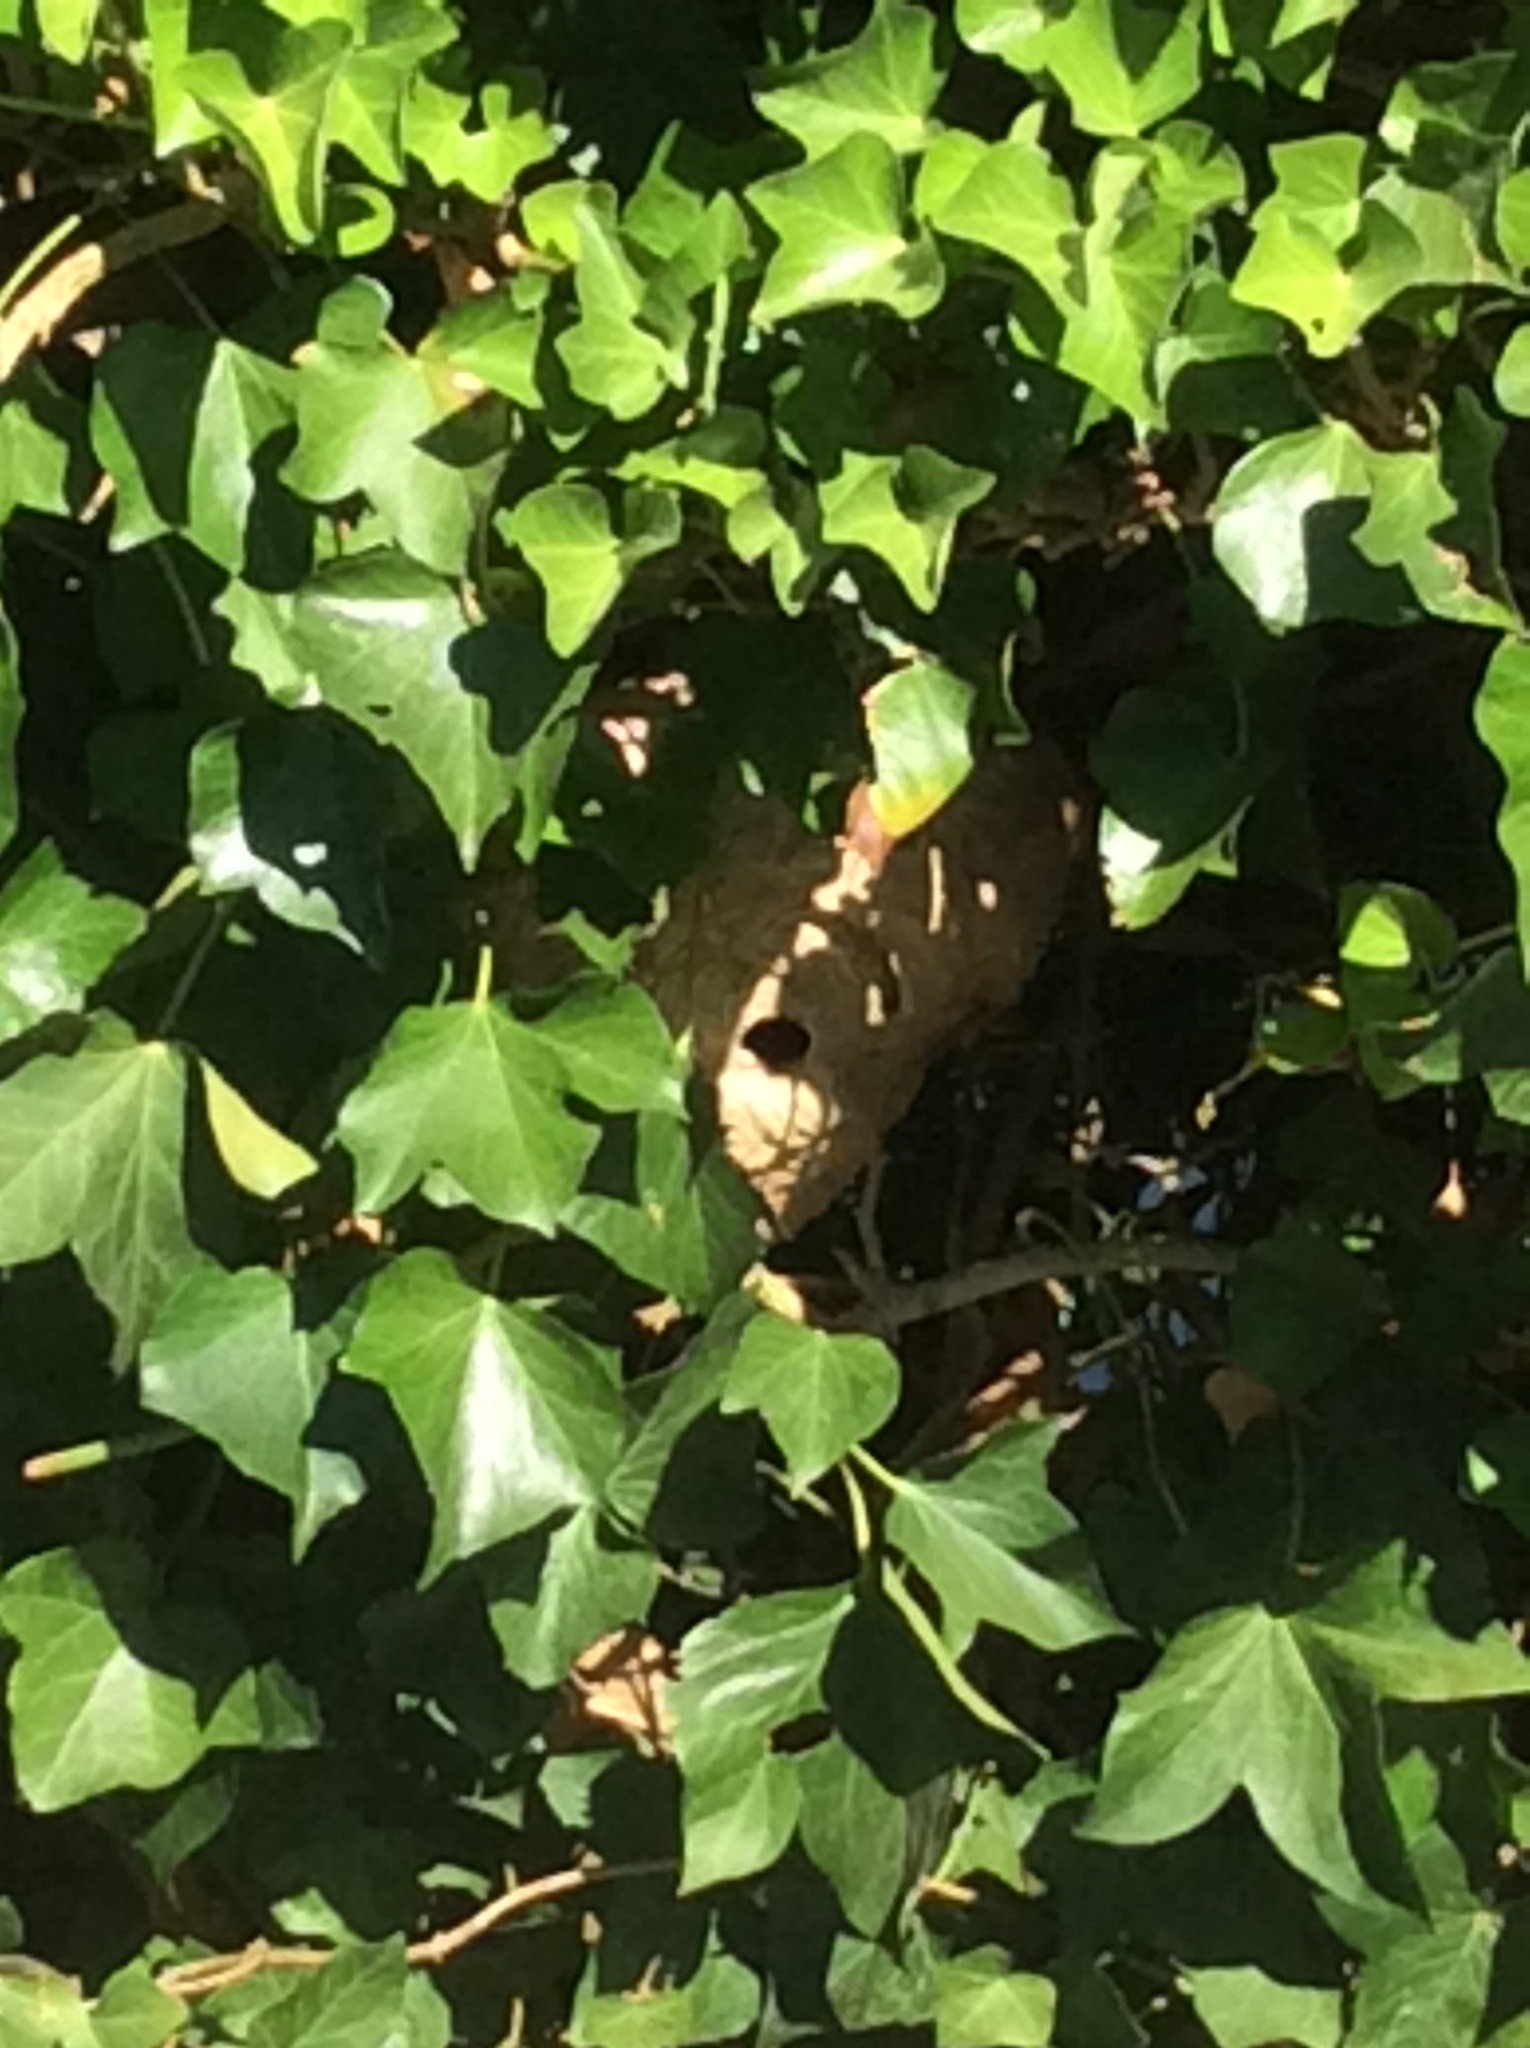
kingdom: Animalia
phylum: Arthropoda
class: Insecta
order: Hymenoptera
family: Vespidae
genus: Vespa
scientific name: Vespa velutina
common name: Asian hornet
